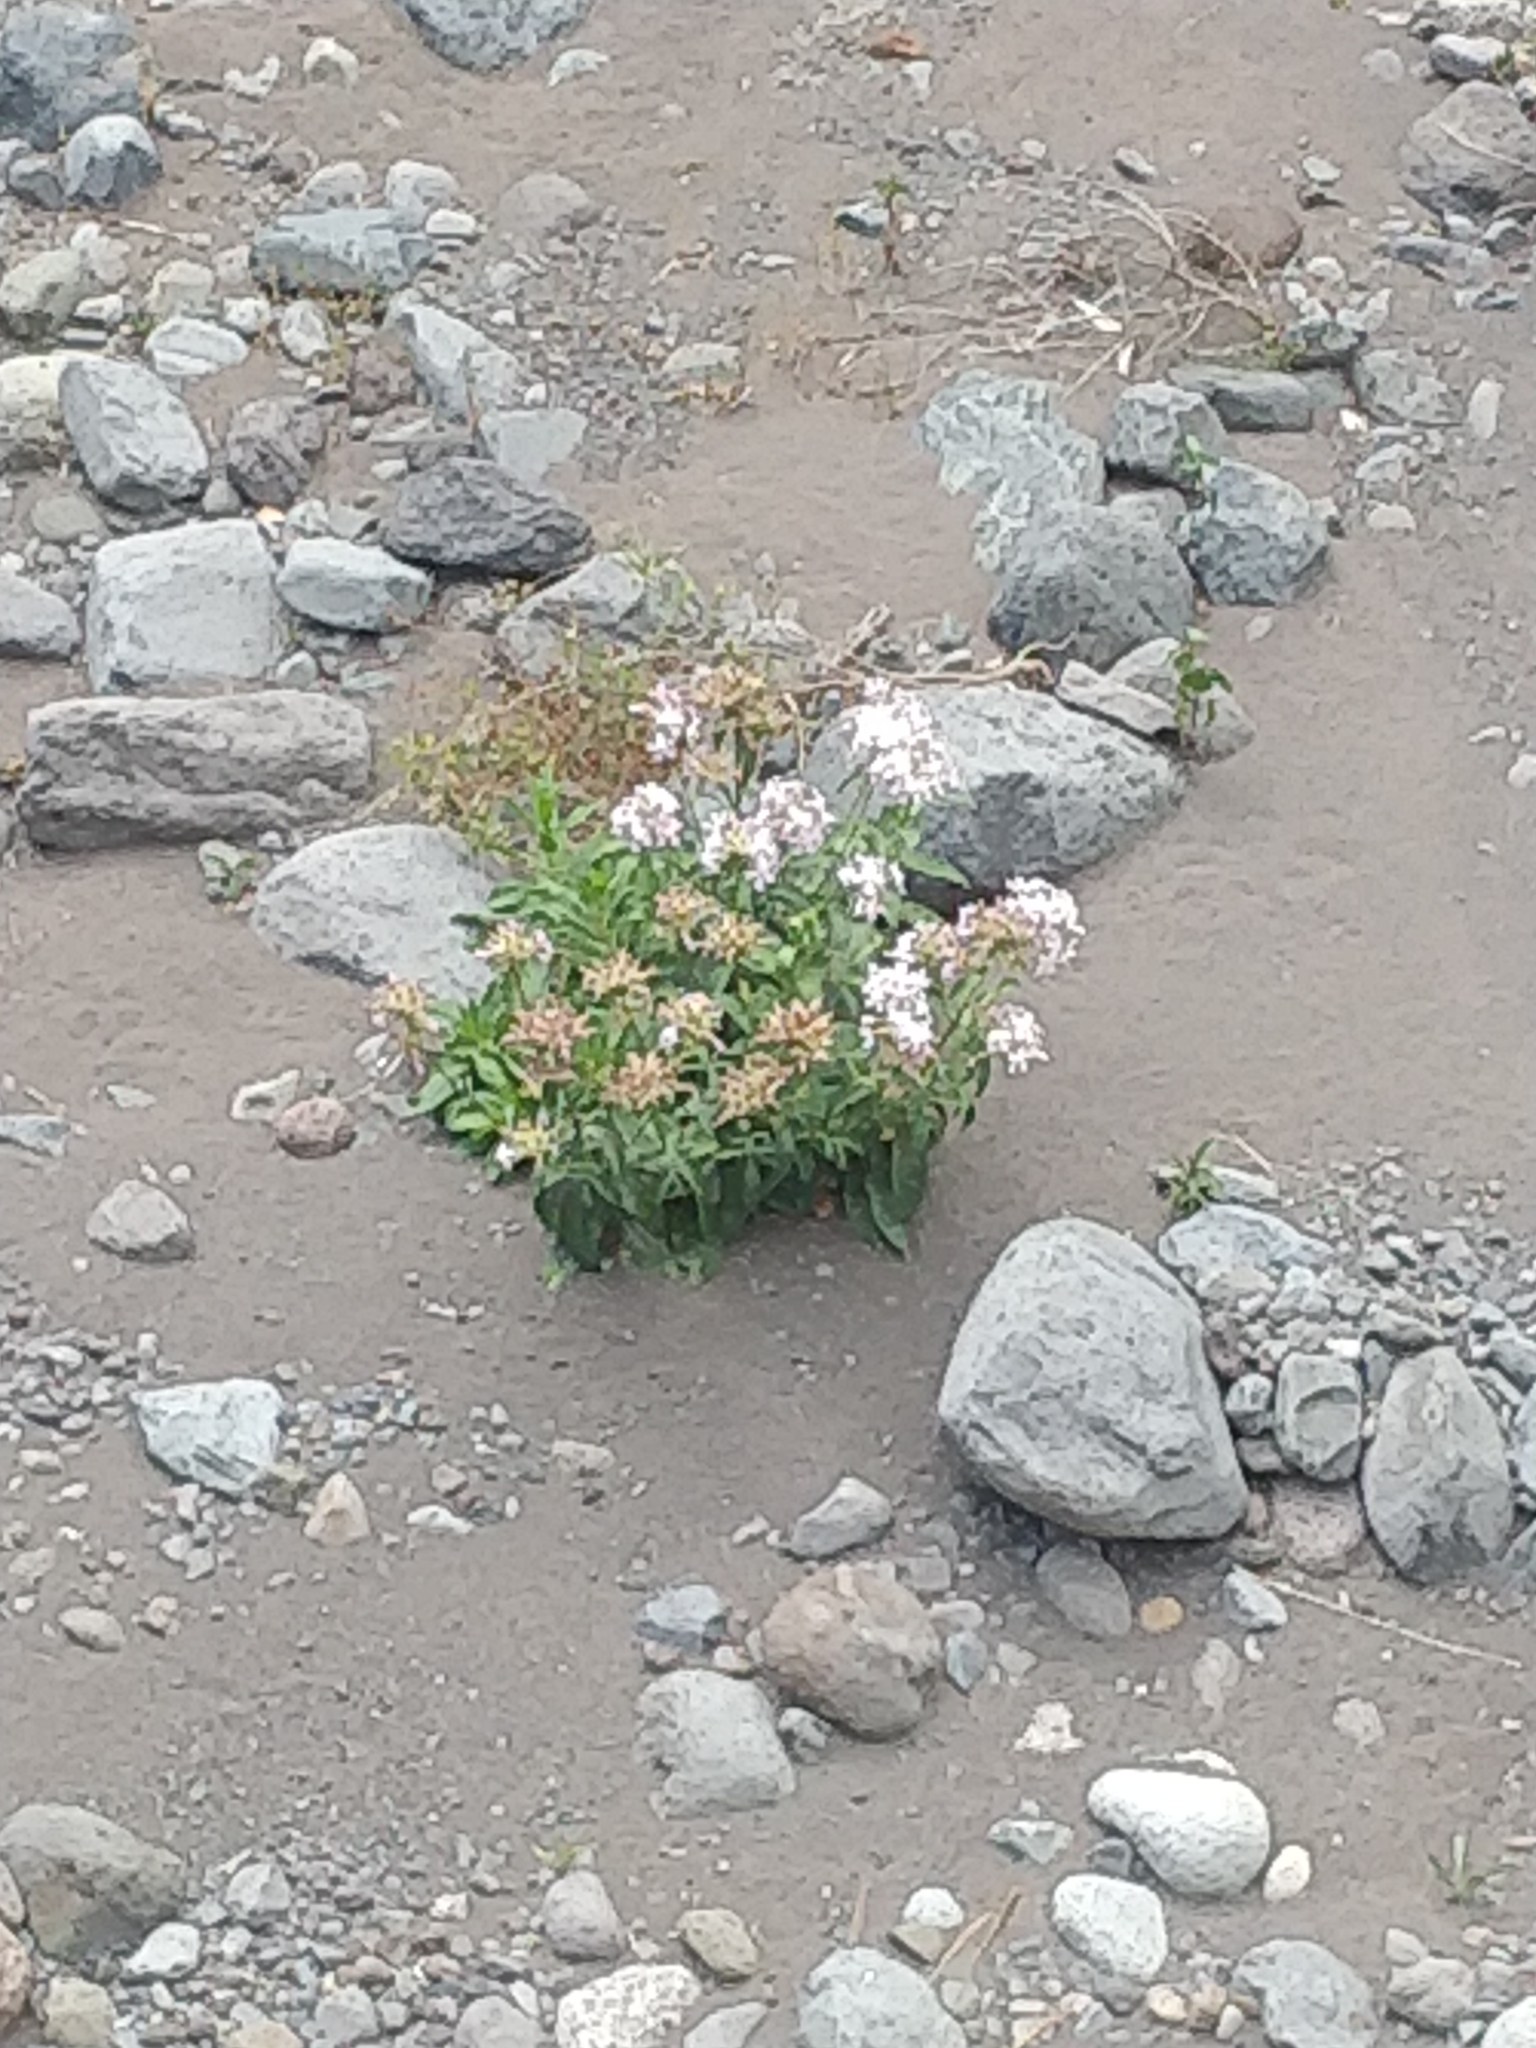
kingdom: Plantae
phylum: Tracheophyta
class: Magnoliopsida
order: Caryophyllales
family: Caryophyllaceae
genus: Saponaria
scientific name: Saponaria officinalis
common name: Soapwort
